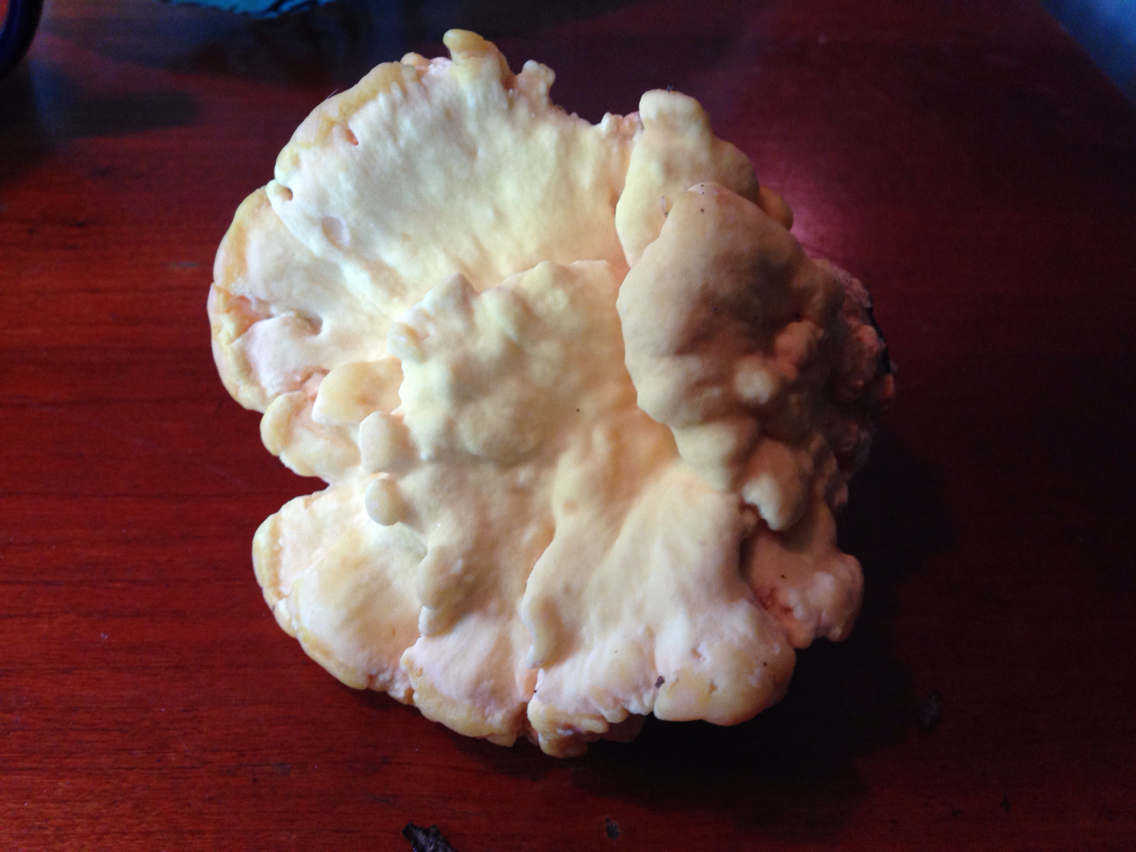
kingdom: Fungi
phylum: Basidiomycota
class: Agaricomycetes
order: Polyporales
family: Laetiporaceae
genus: Laetiporus
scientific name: Laetiporus sulphureus
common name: Chicken of the woods
